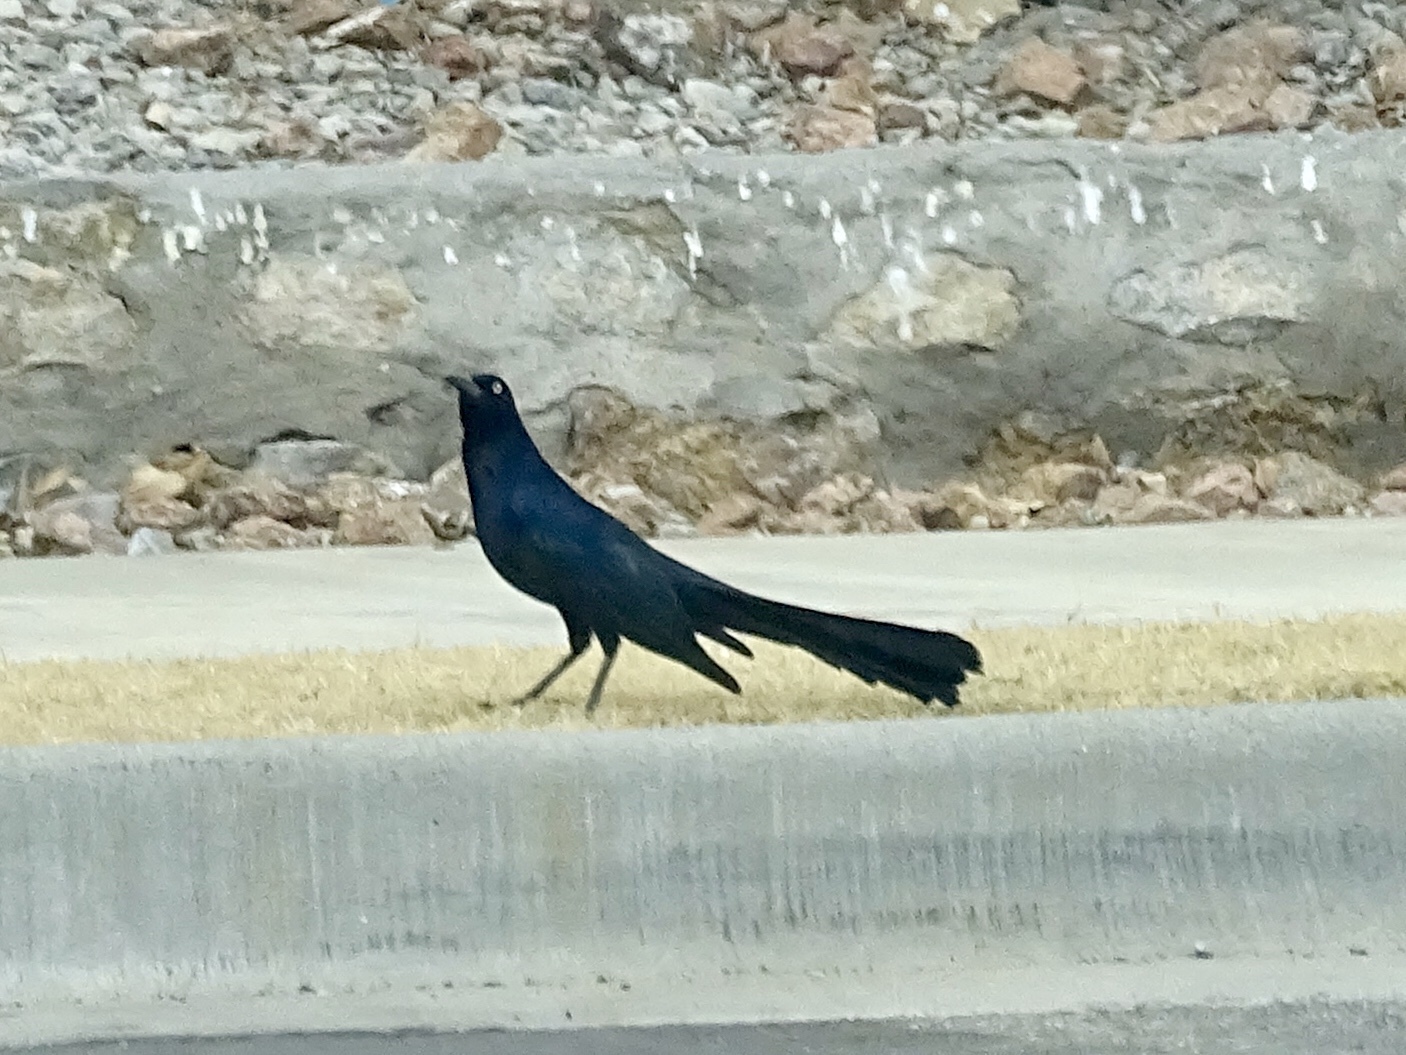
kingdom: Animalia
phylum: Chordata
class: Aves
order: Passeriformes
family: Icteridae
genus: Quiscalus
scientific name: Quiscalus mexicanus
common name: Great-tailed grackle
